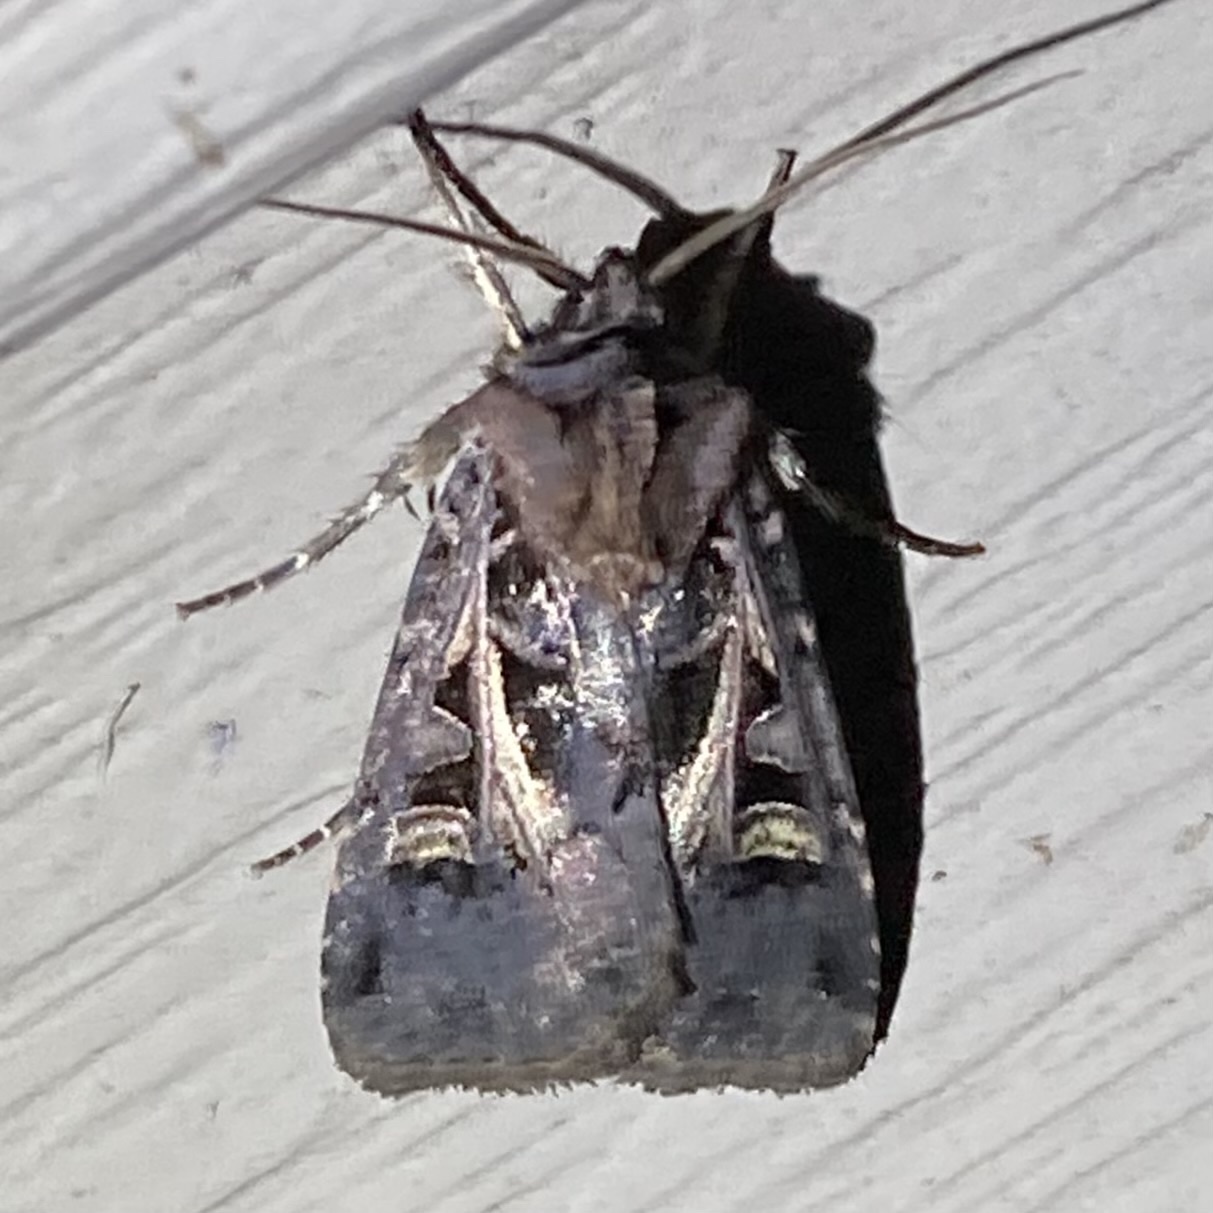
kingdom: Animalia
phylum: Arthropoda
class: Insecta
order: Lepidoptera
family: Noctuidae
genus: Feltia
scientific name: Feltia herilis
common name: Master's dart
